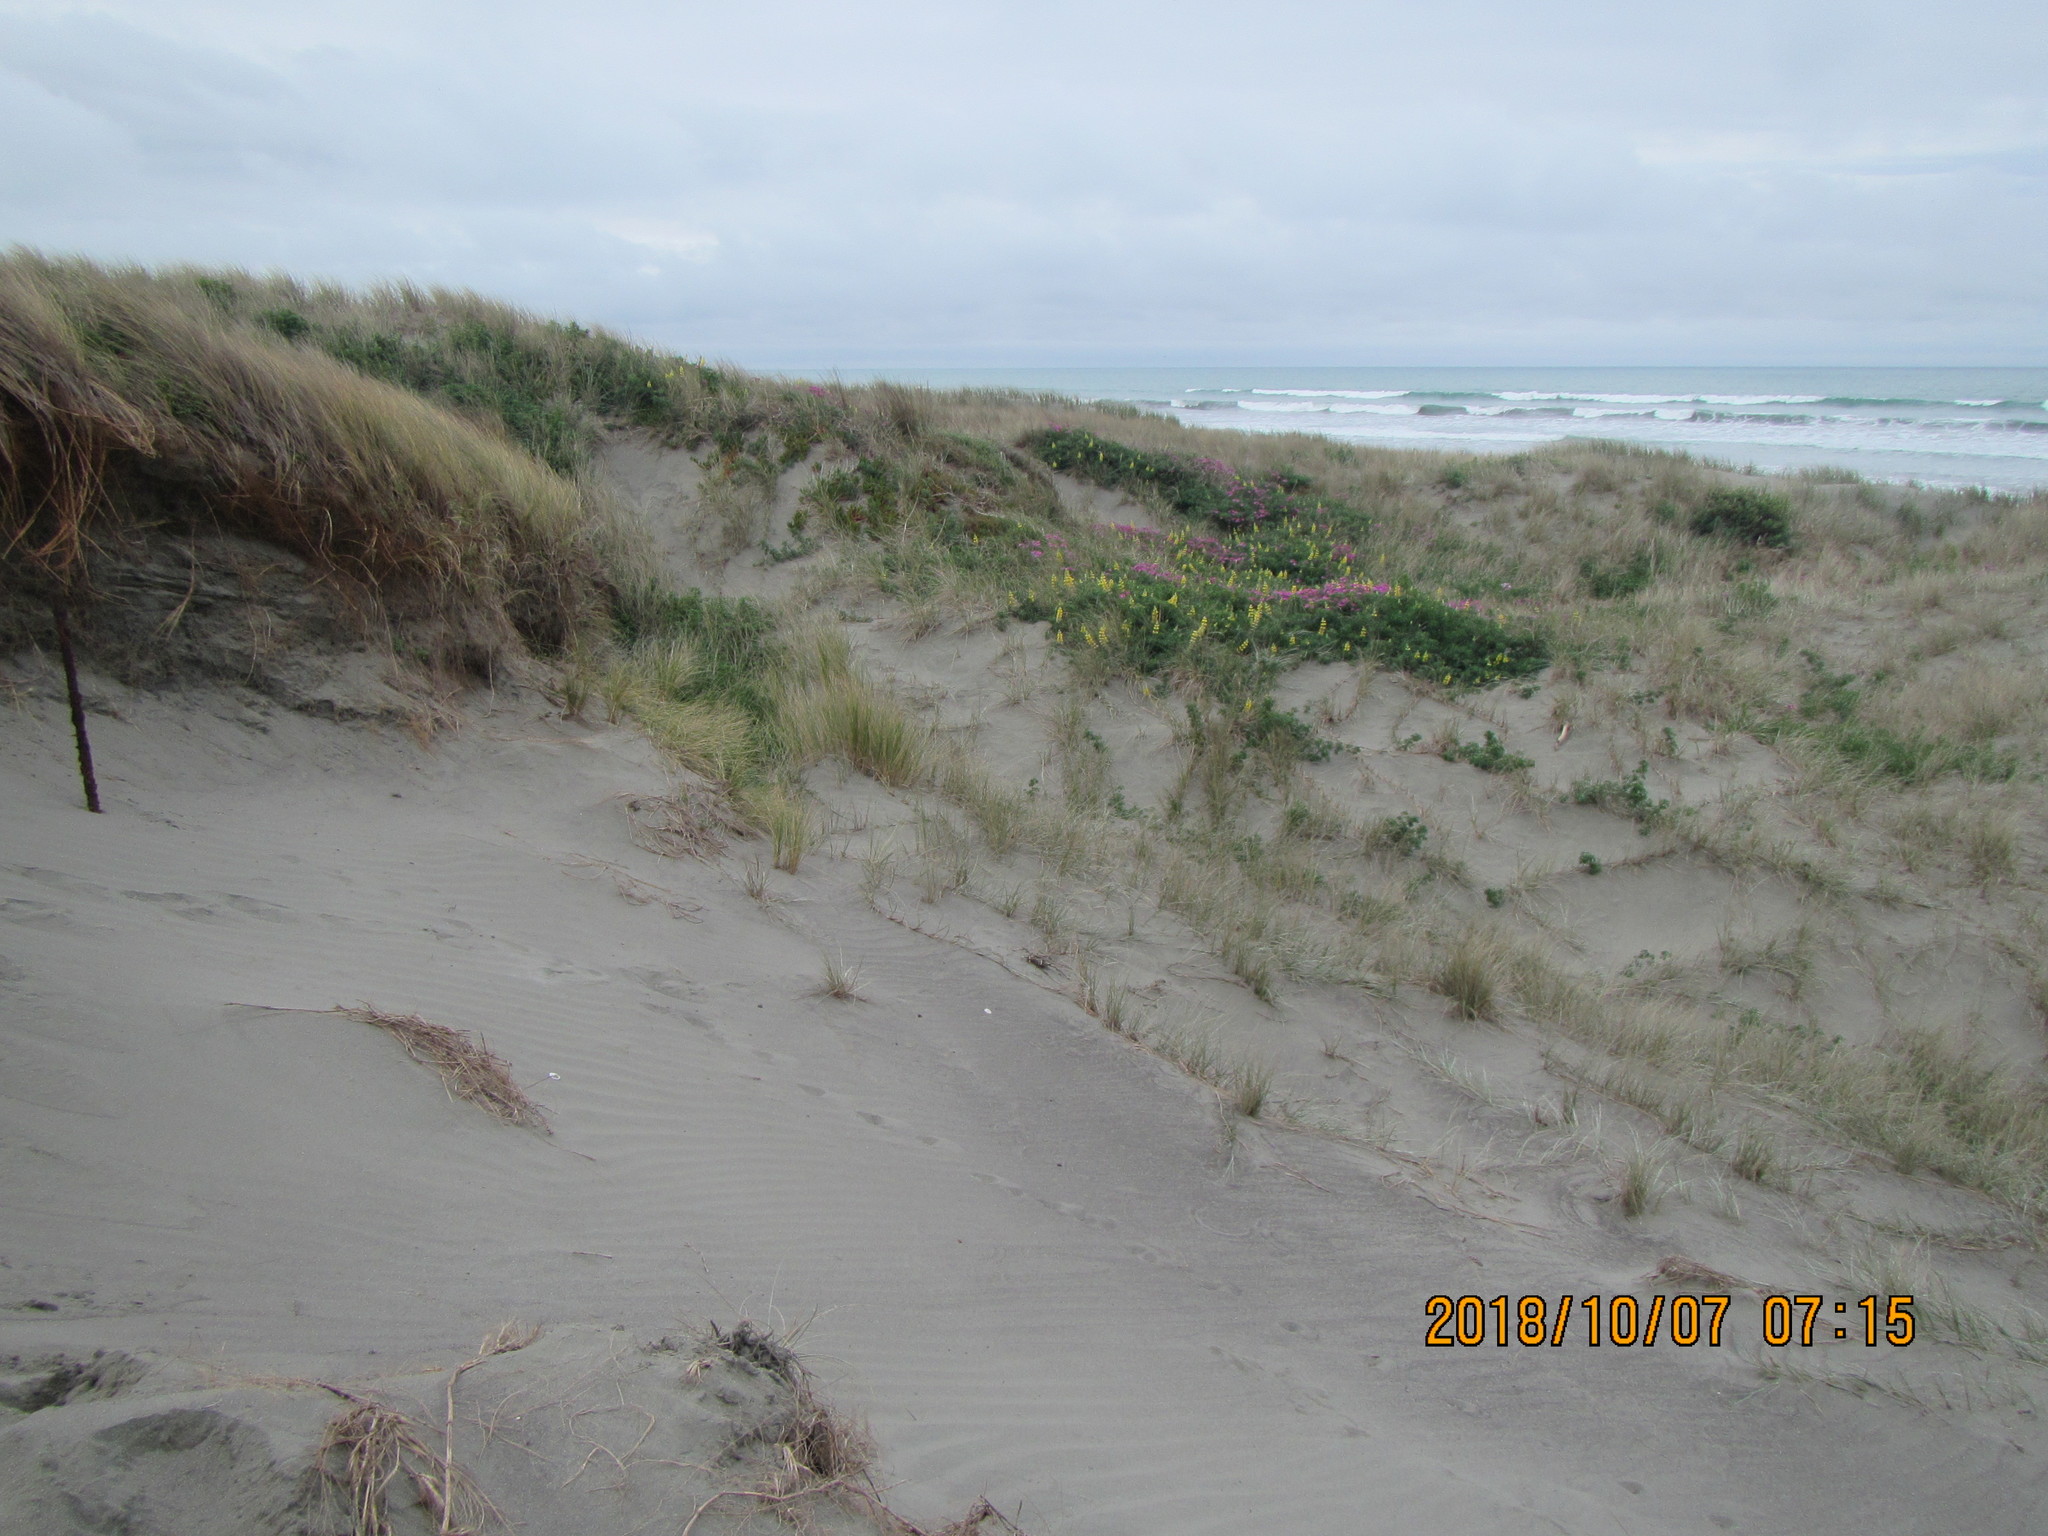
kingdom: Plantae
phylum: Tracheophyta
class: Magnoliopsida
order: Fabales
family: Fabaceae
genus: Lupinus
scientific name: Lupinus arboreus
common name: Yellow bush lupine
